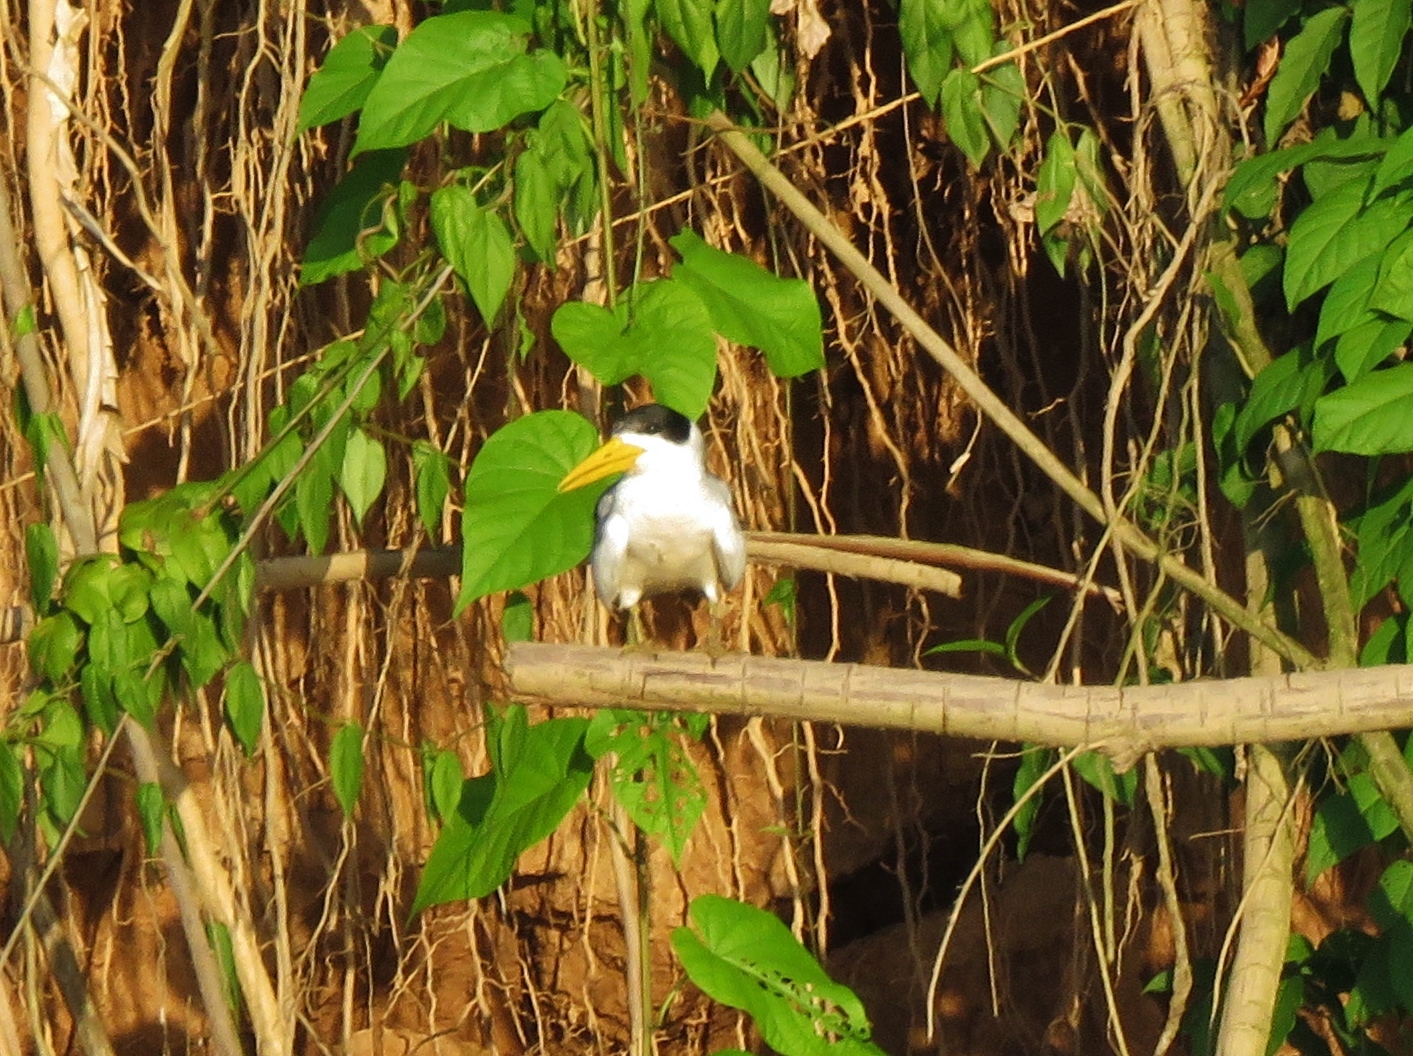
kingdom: Animalia
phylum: Chordata
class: Aves
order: Charadriiformes
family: Laridae
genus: Phaetusa
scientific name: Phaetusa simplex
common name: Large-billed tern
